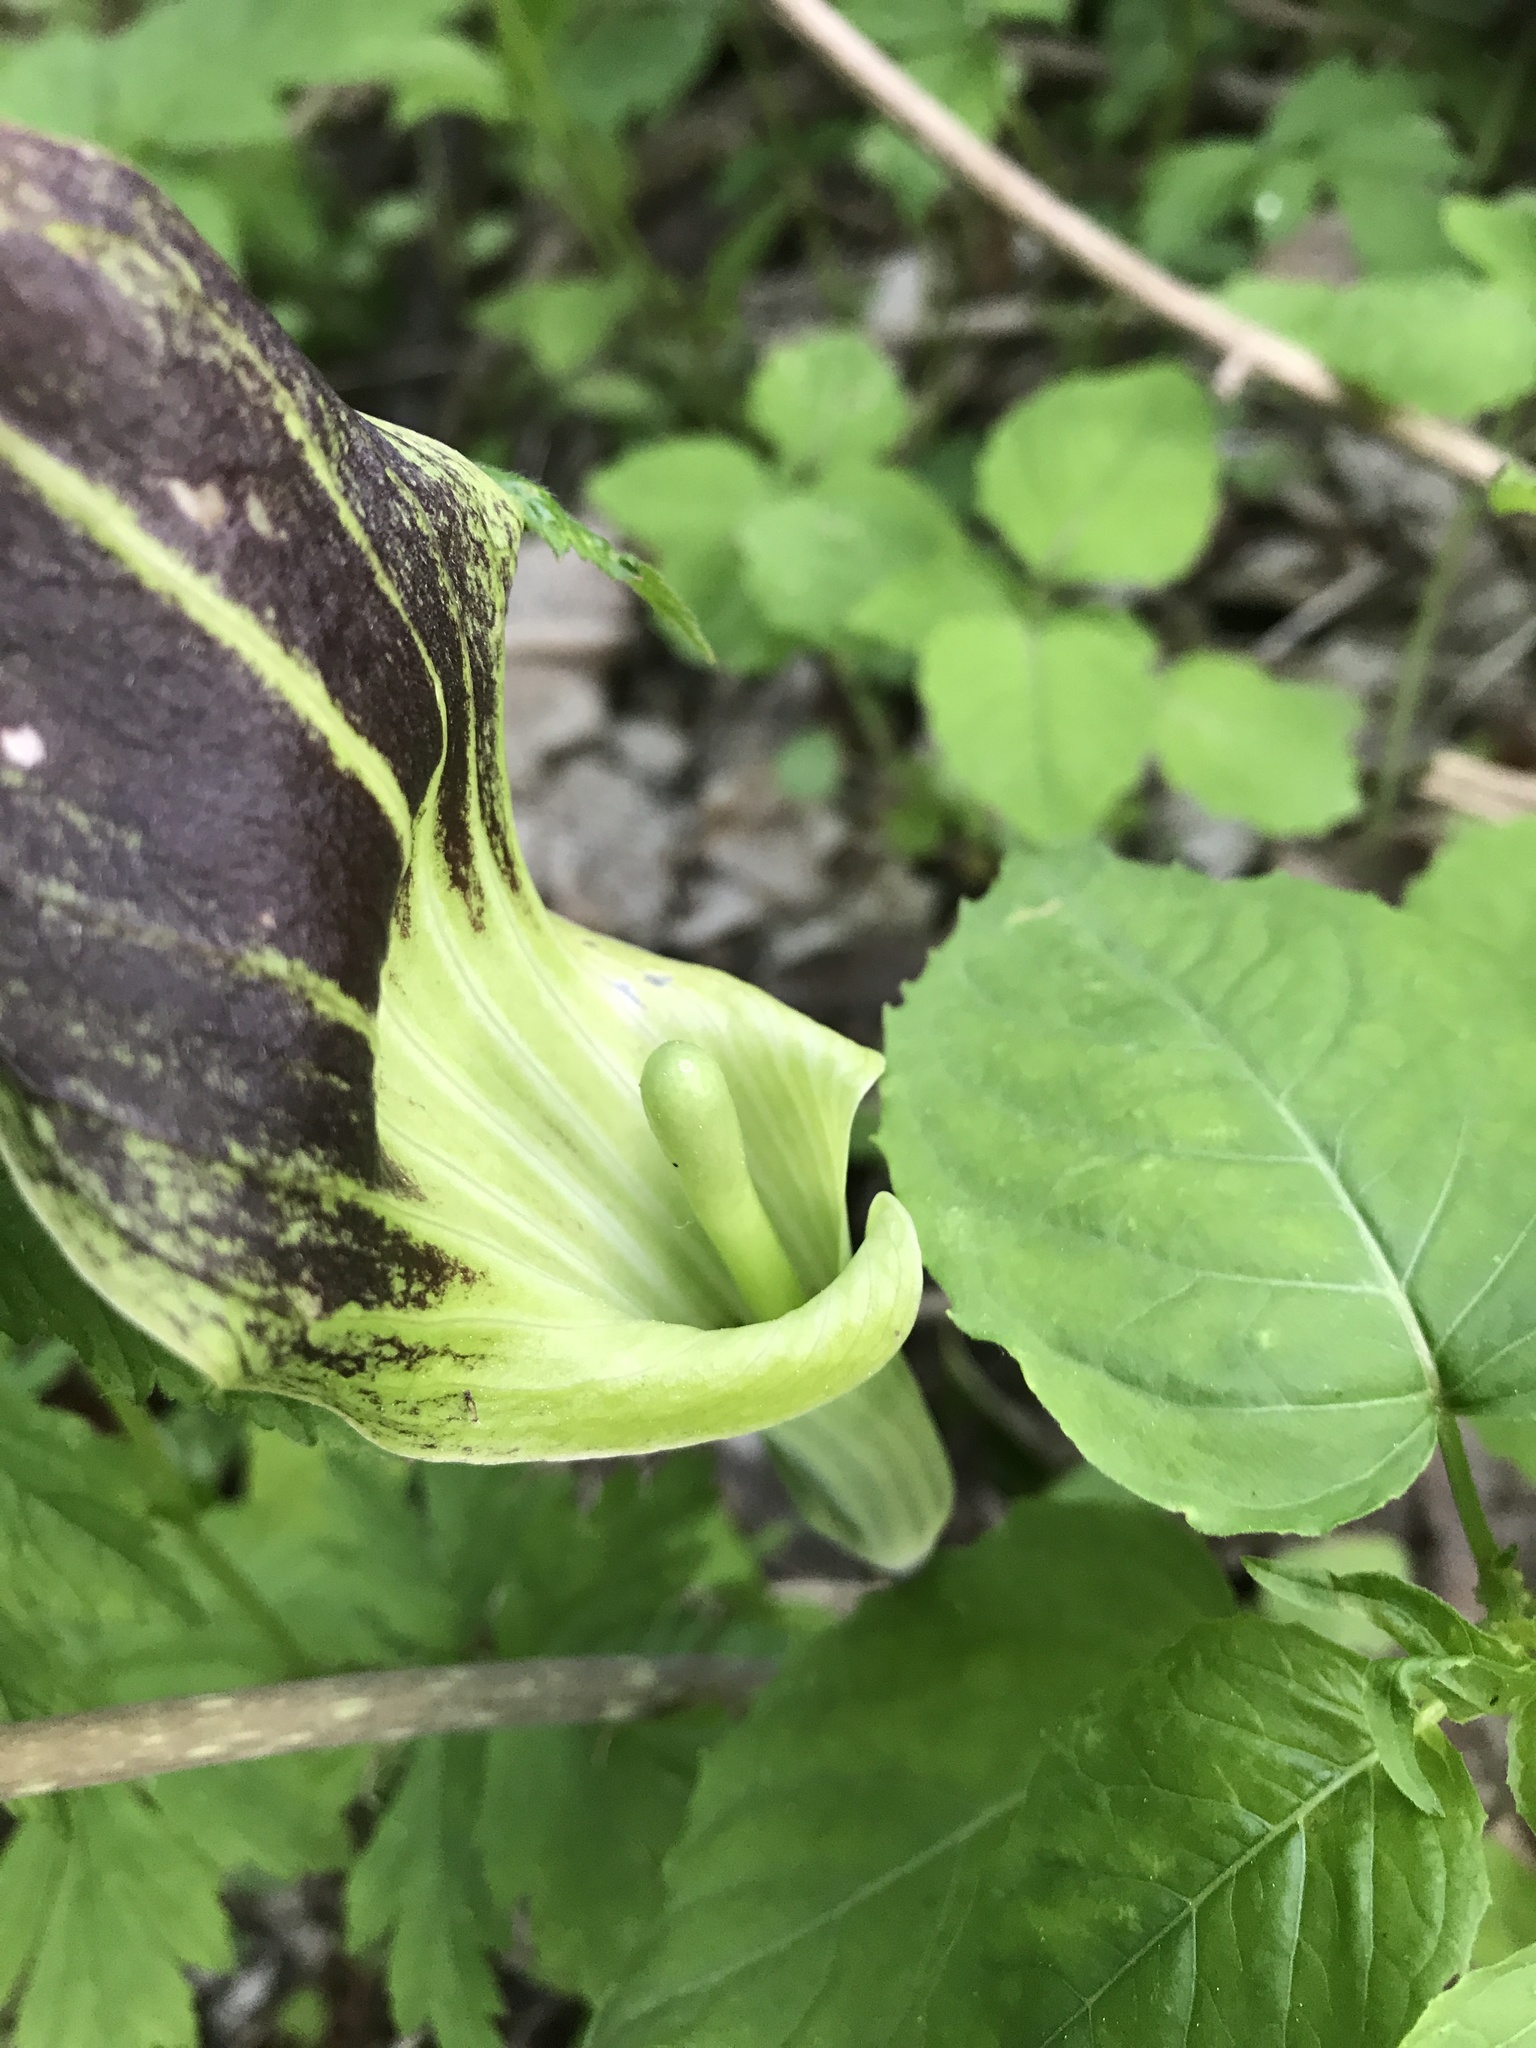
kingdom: Plantae
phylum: Tracheophyta
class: Liliopsida
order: Alismatales
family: Araceae
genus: Arisaema
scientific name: Arisaema triphyllum
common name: Jack-in-the-pulpit
